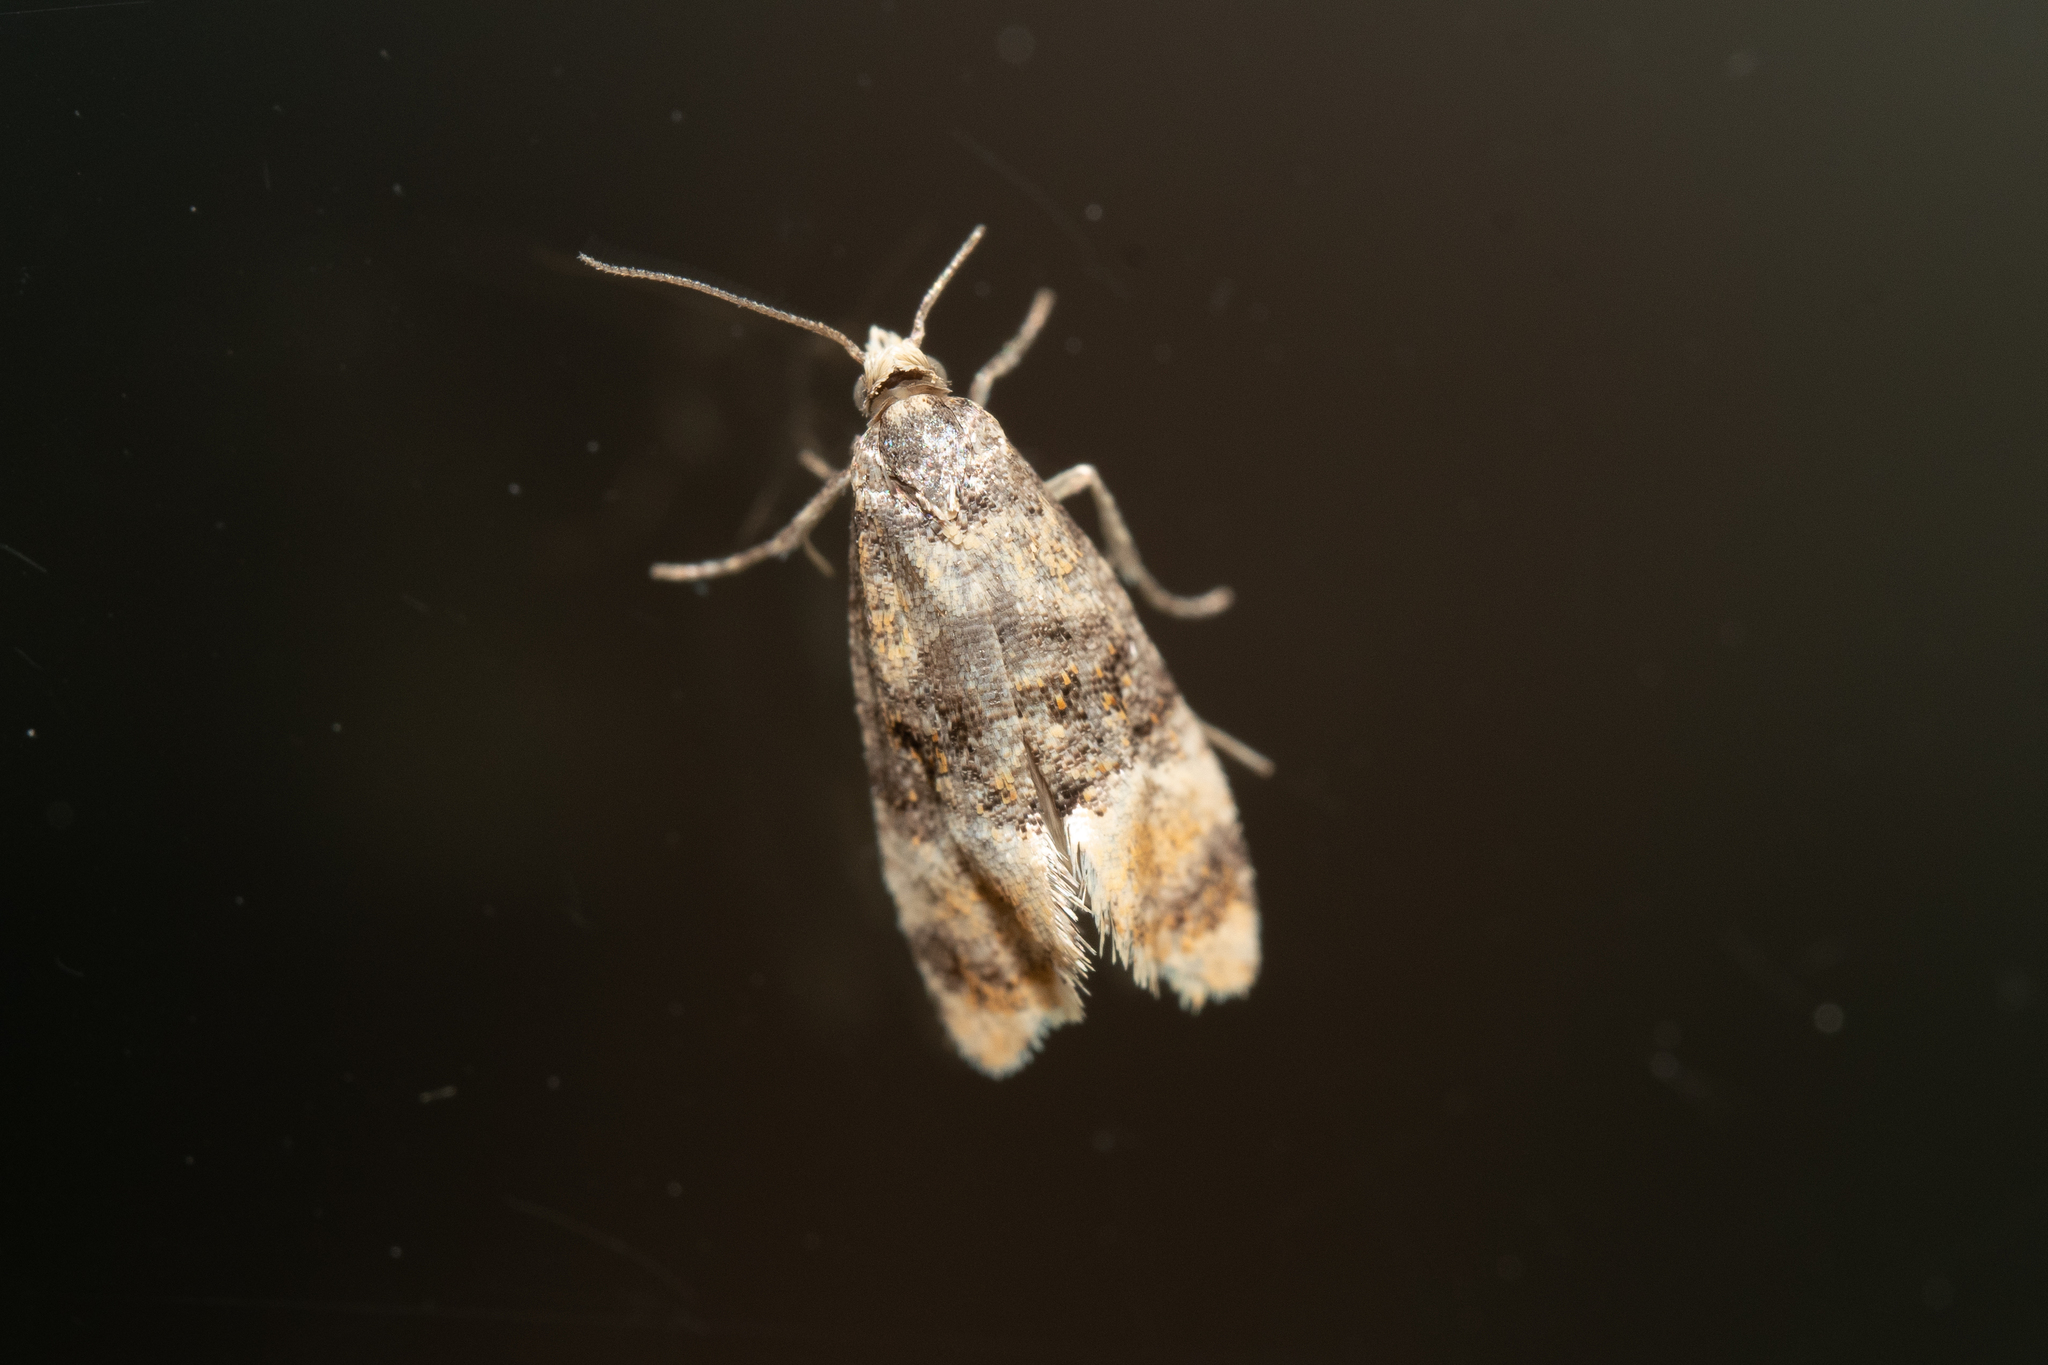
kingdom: Animalia
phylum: Arthropoda
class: Insecta
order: Lepidoptera
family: Tortricidae
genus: Thyraylia
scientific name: Thyraylia nana
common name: Birch conch
